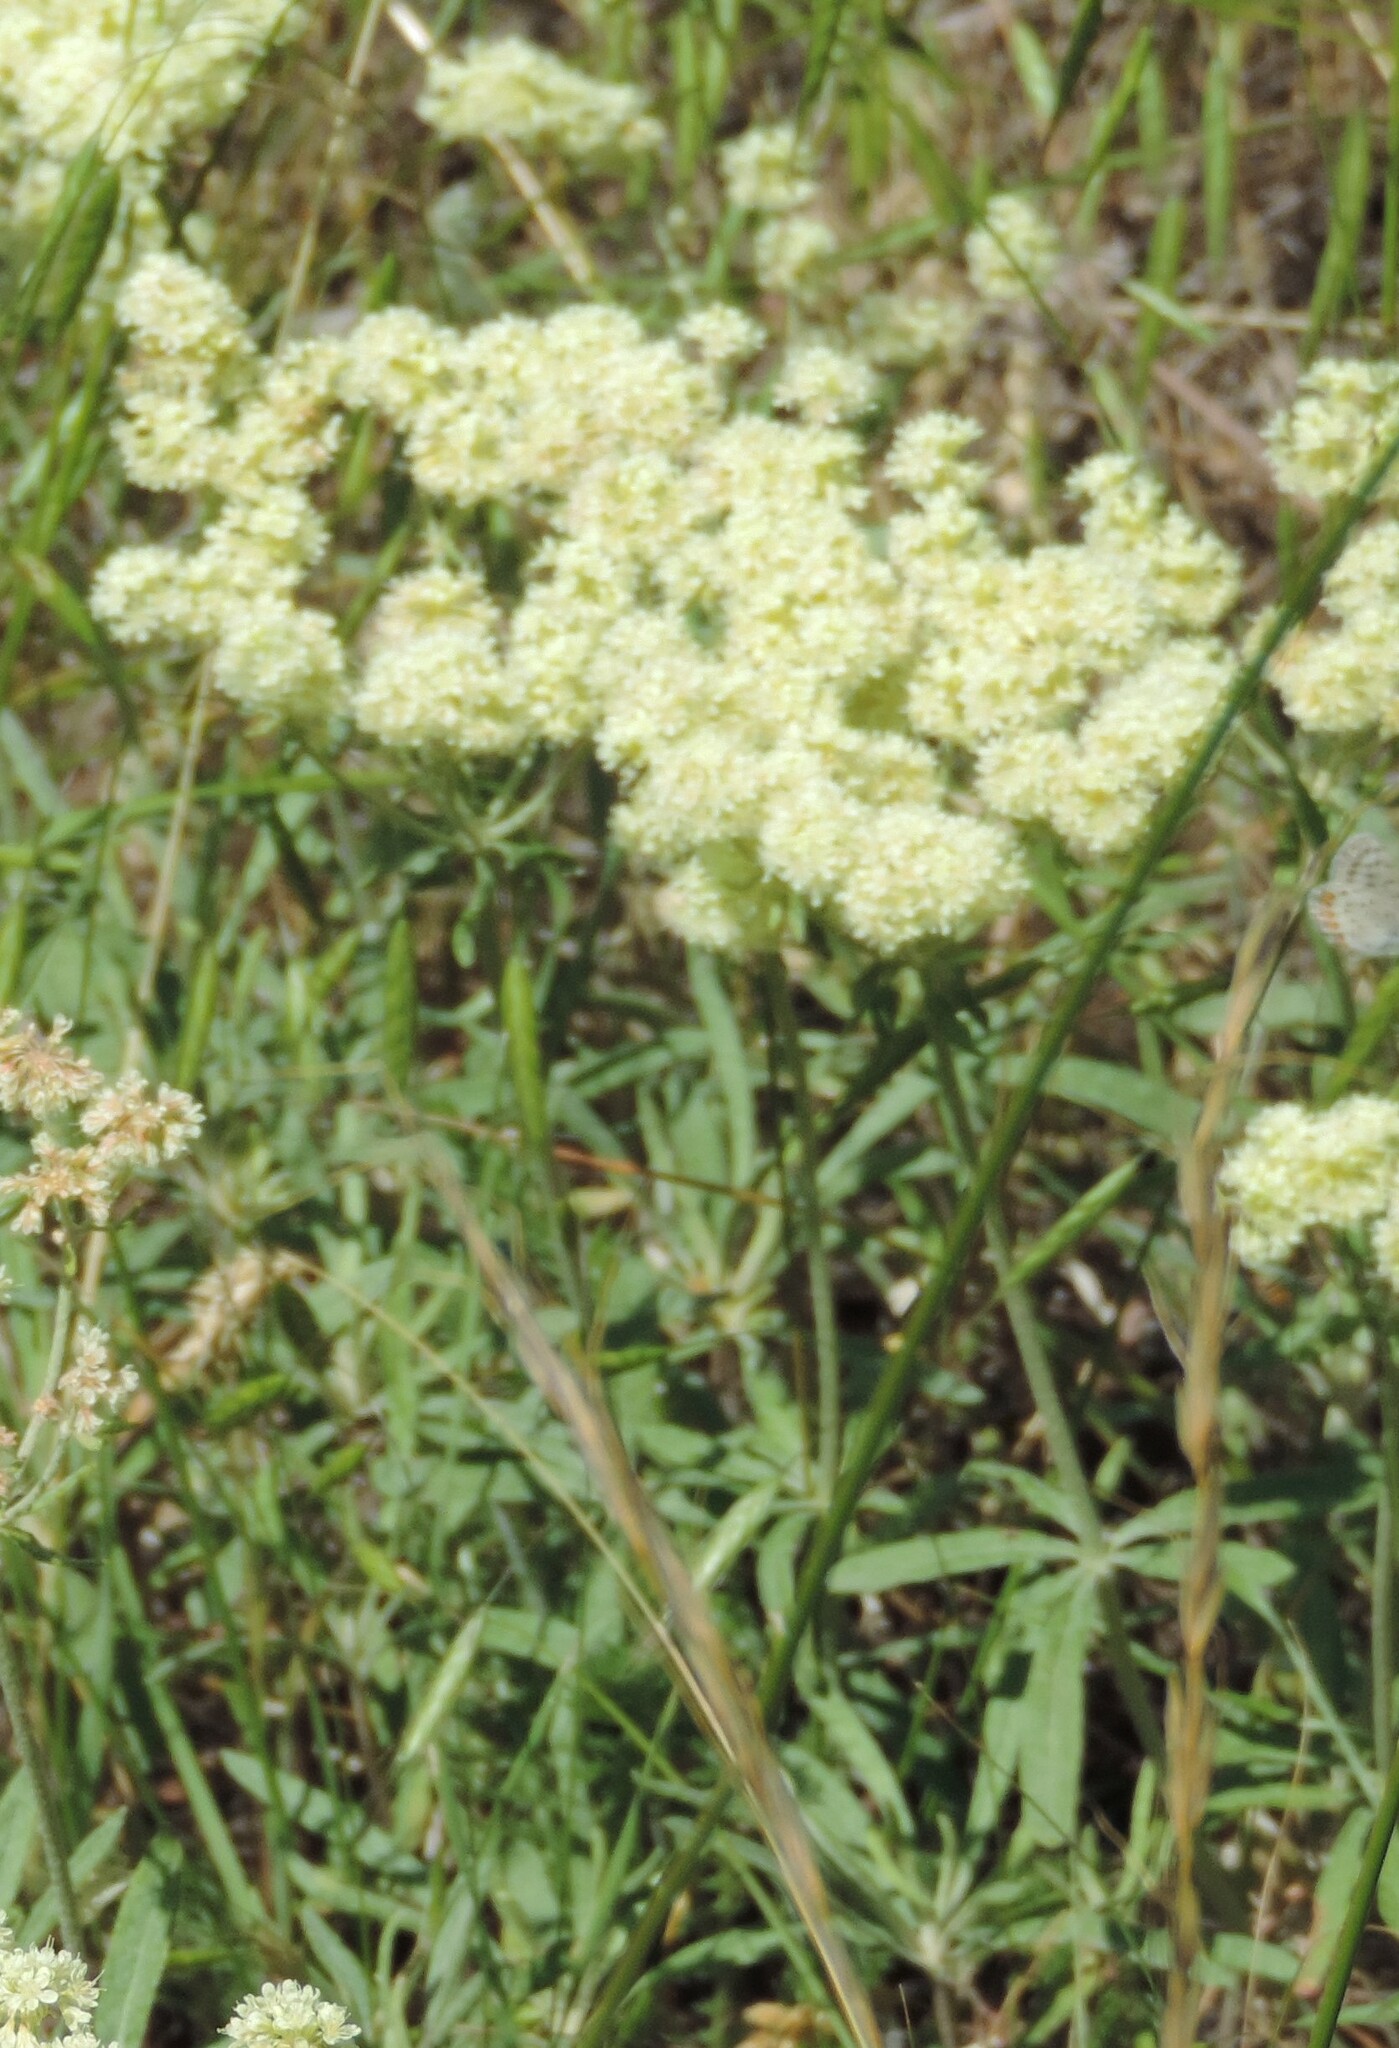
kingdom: Plantae
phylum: Tracheophyta
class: Magnoliopsida
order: Caryophyllales
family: Polygonaceae
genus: Eriogonum
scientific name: Eriogonum heracleoides
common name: Wyeth's buckwheat
